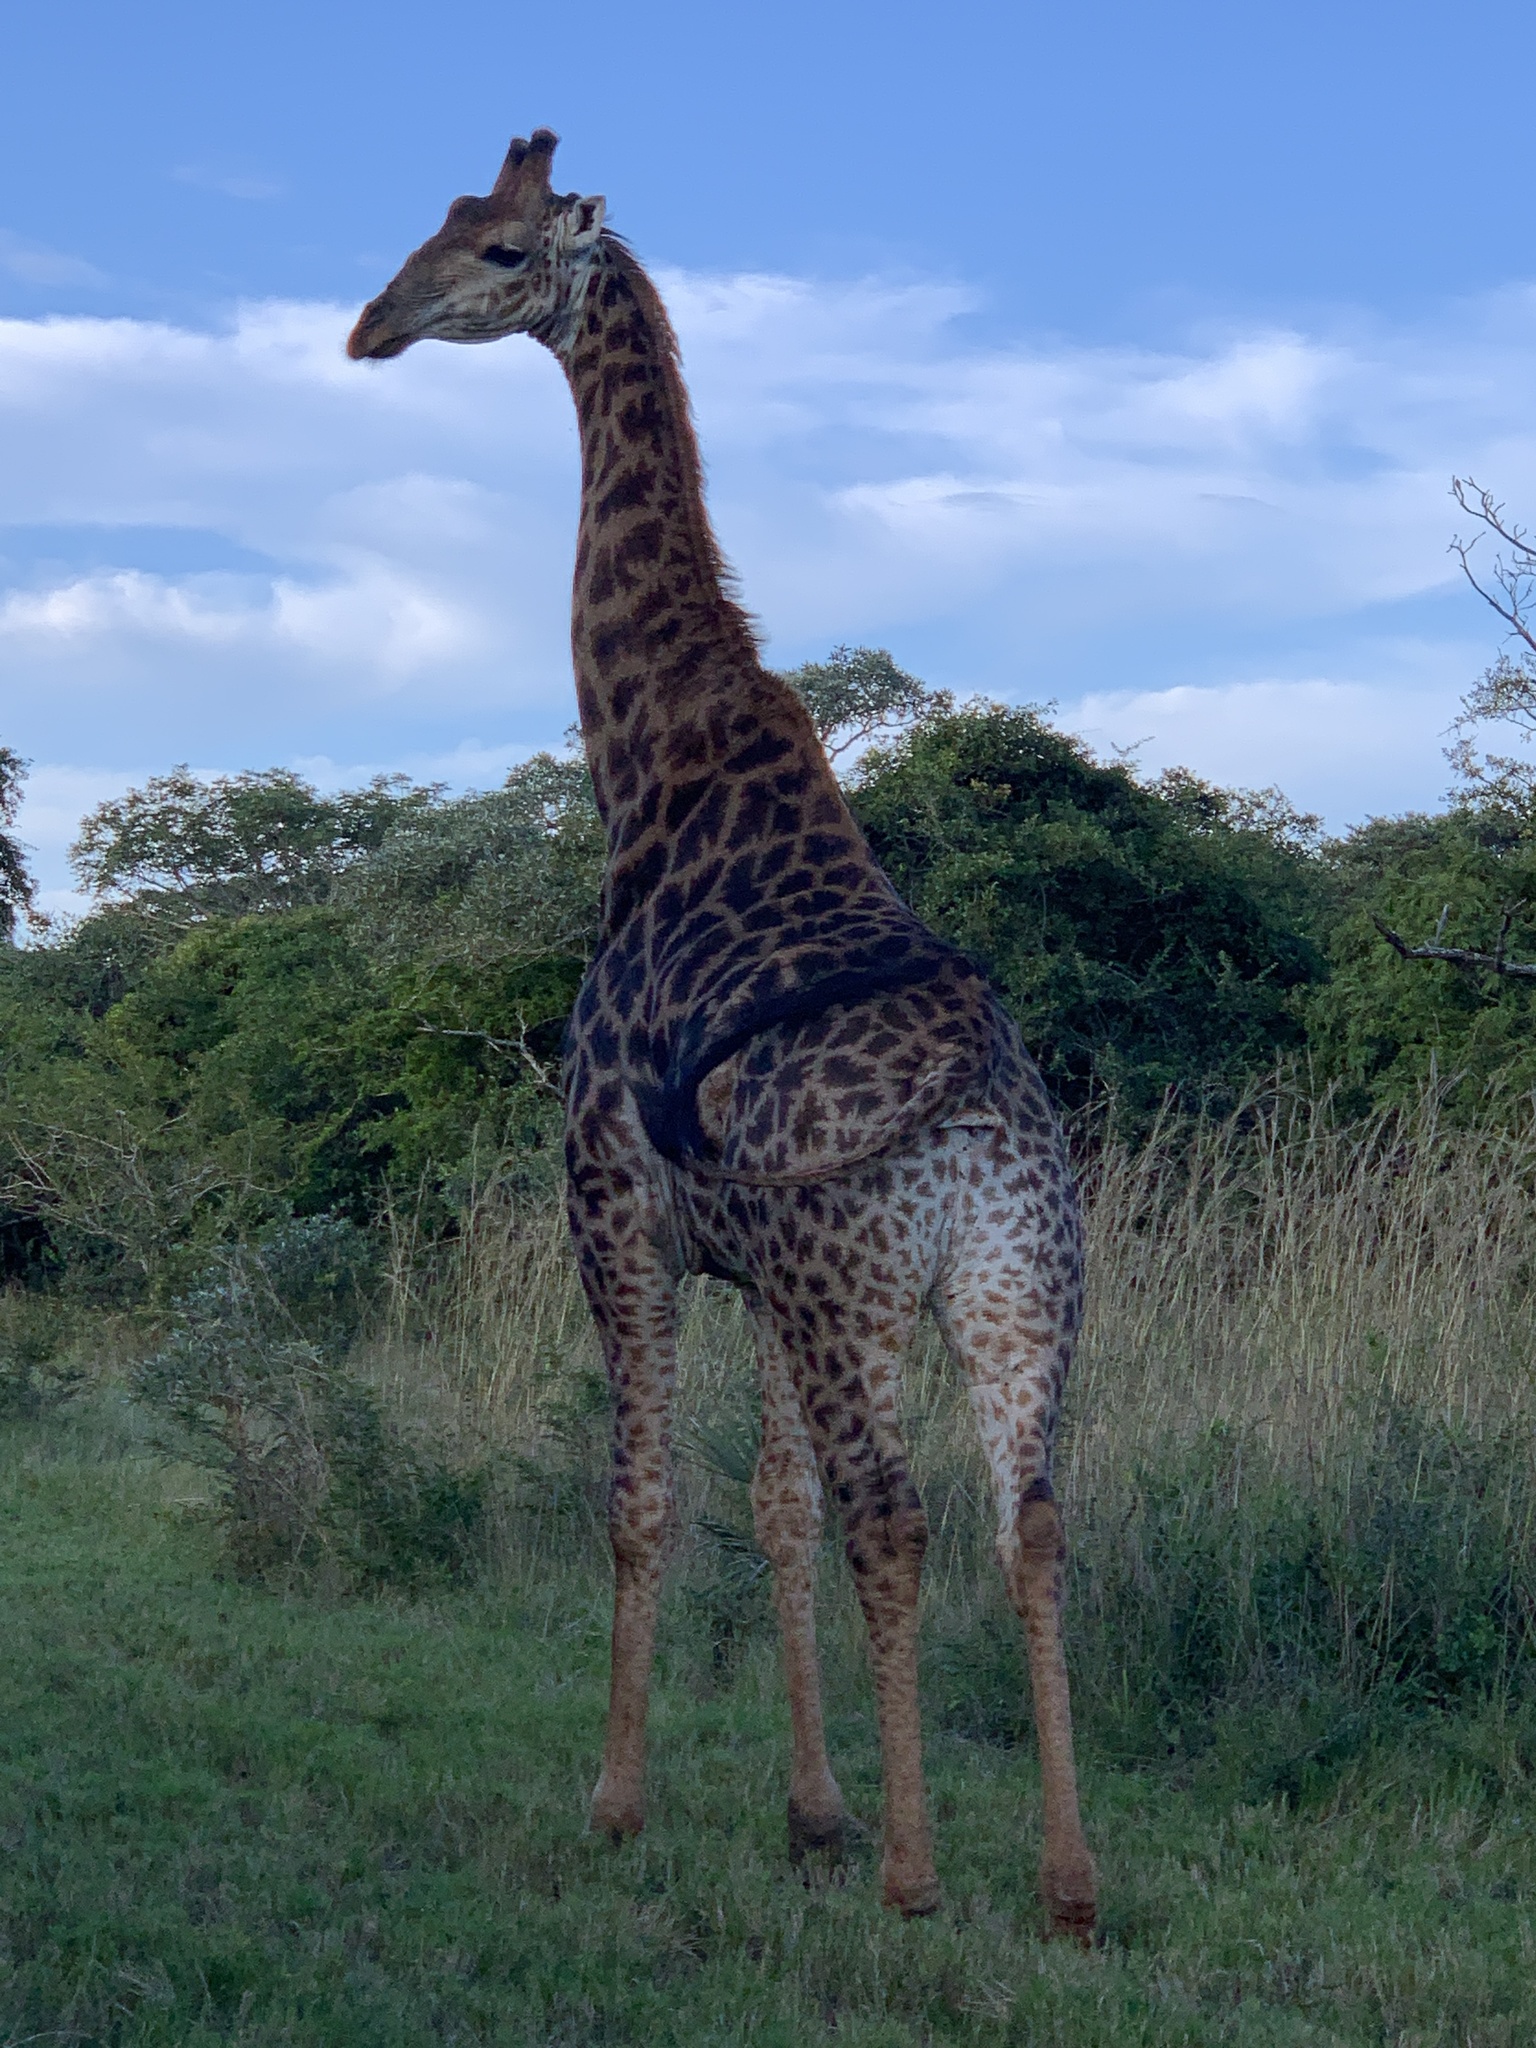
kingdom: Animalia
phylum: Chordata
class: Mammalia
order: Artiodactyla
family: Giraffidae
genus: Giraffa
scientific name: Giraffa giraffa
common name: Southern giraffe
